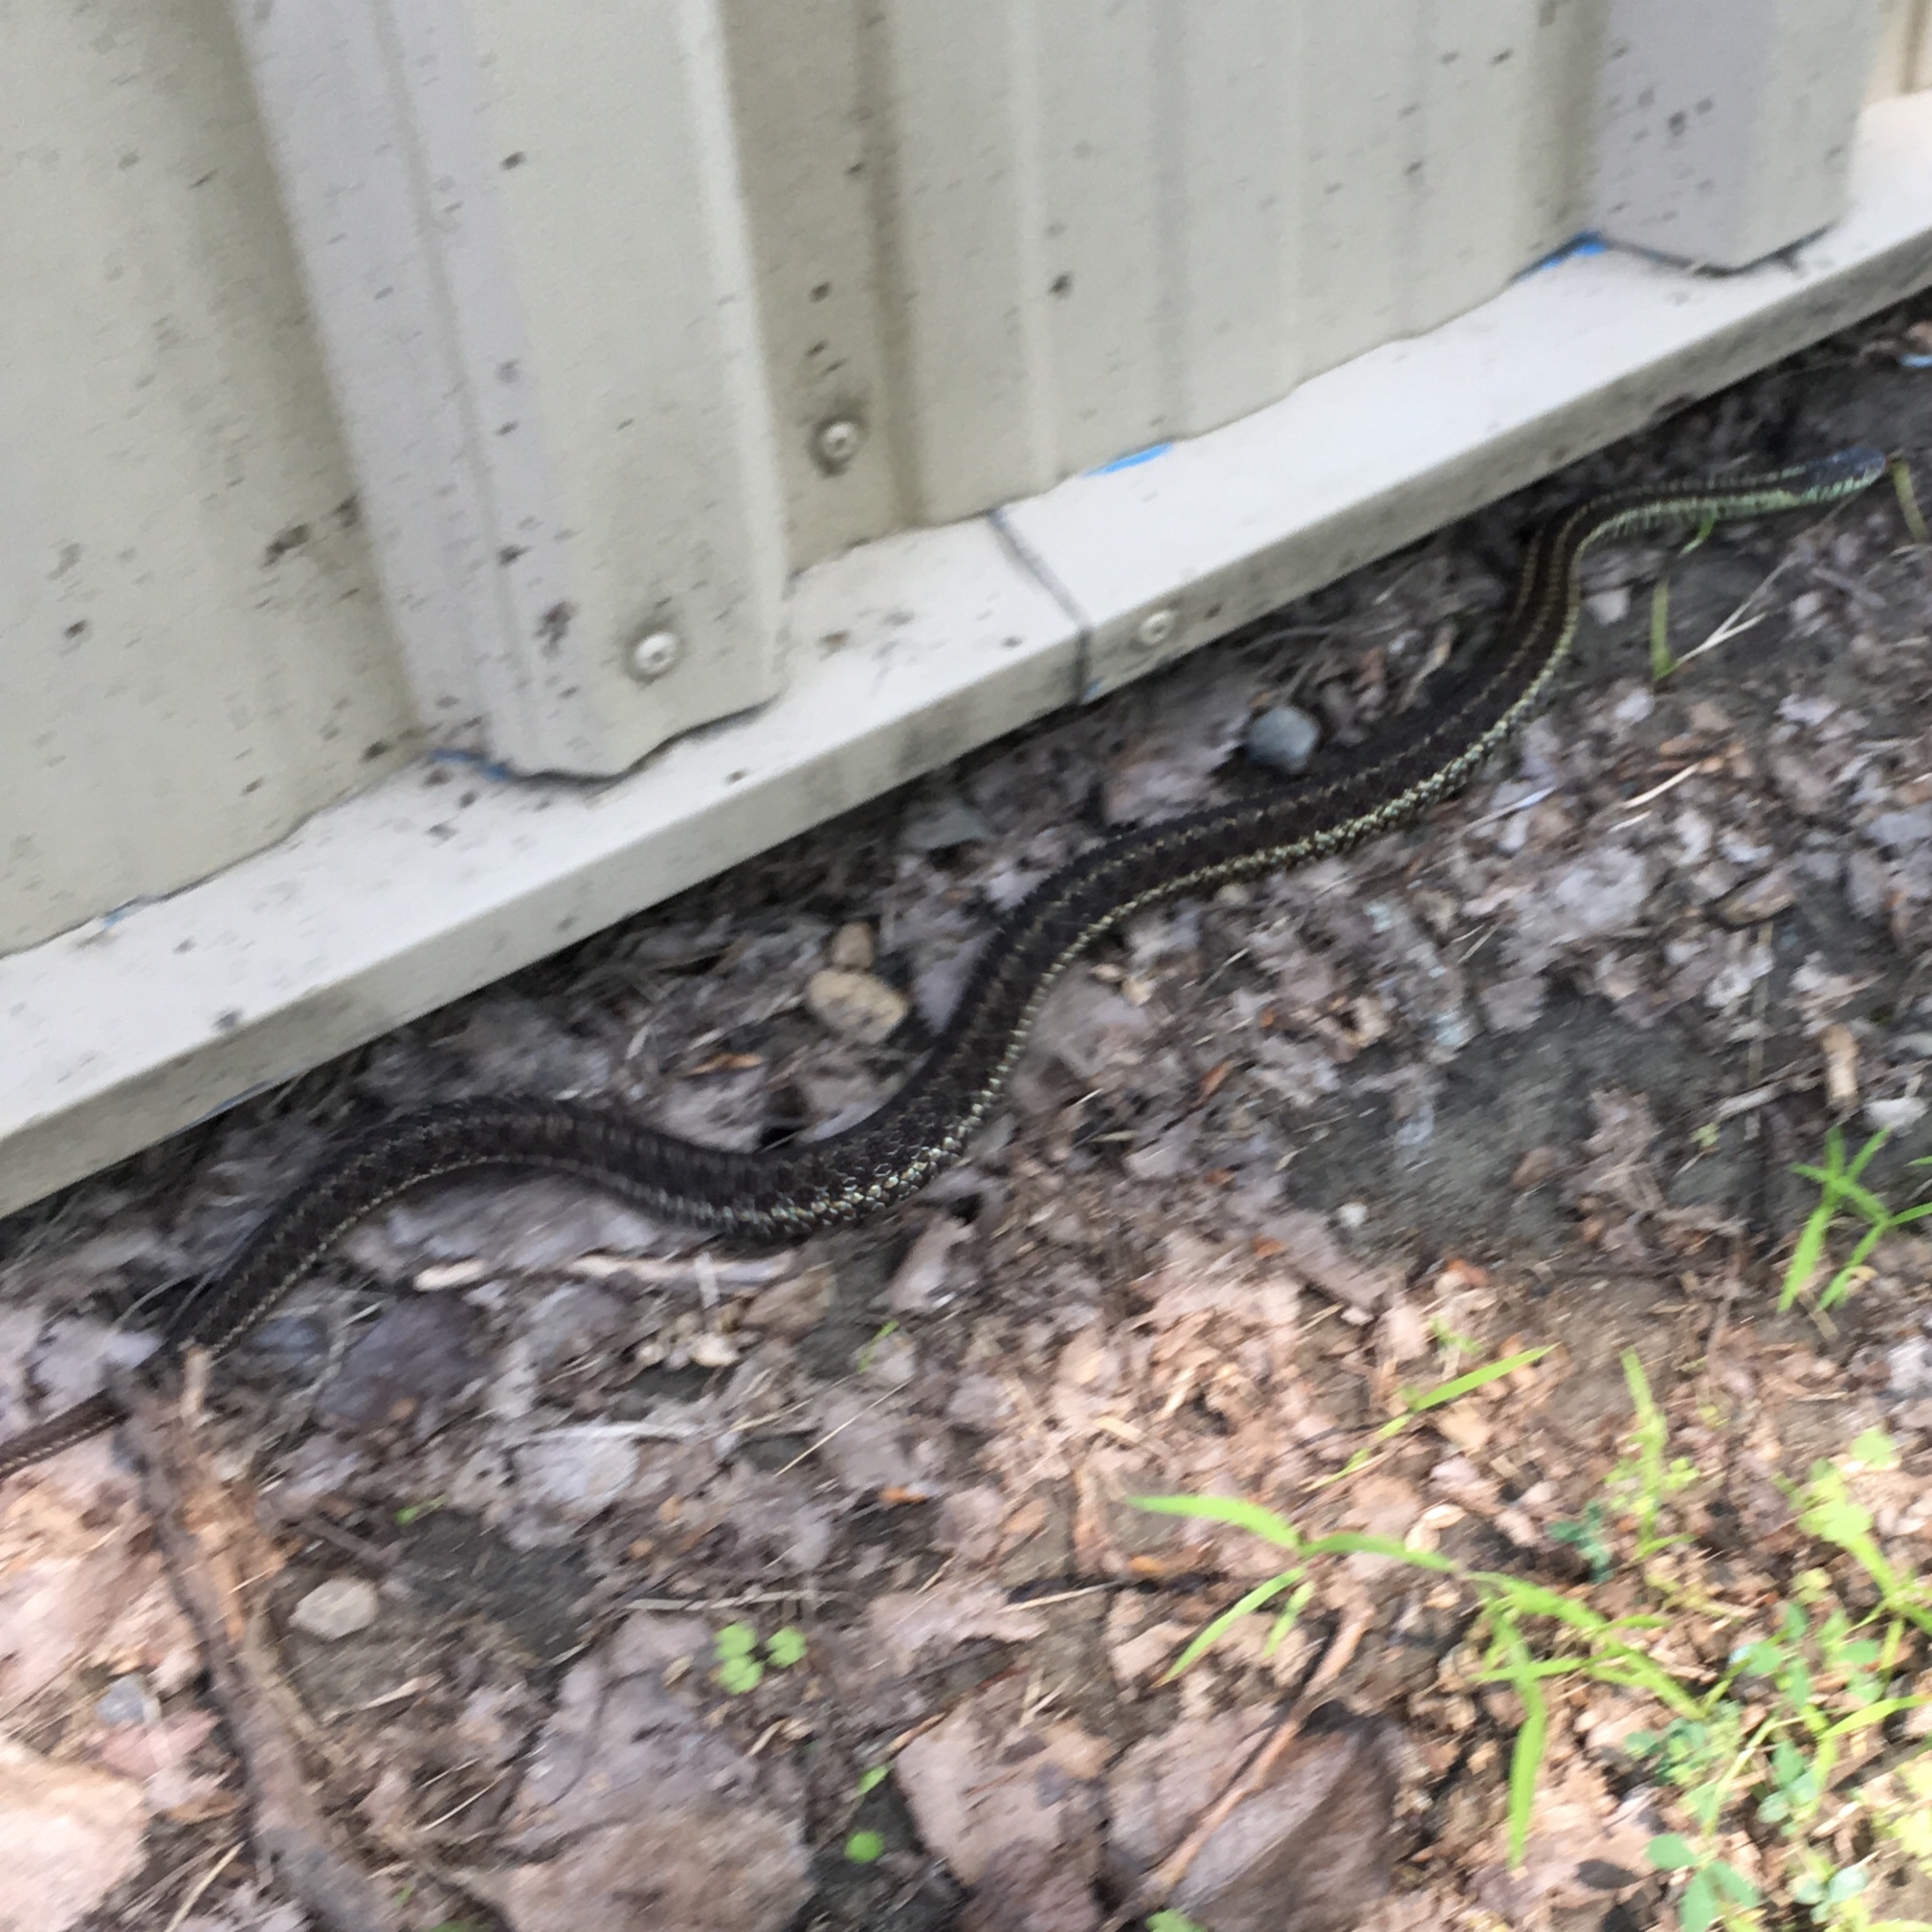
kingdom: Animalia
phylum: Chordata
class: Squamata
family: Colubridae
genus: Thamnophis
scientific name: Thamnophis sirtalis
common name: Common garter snake
